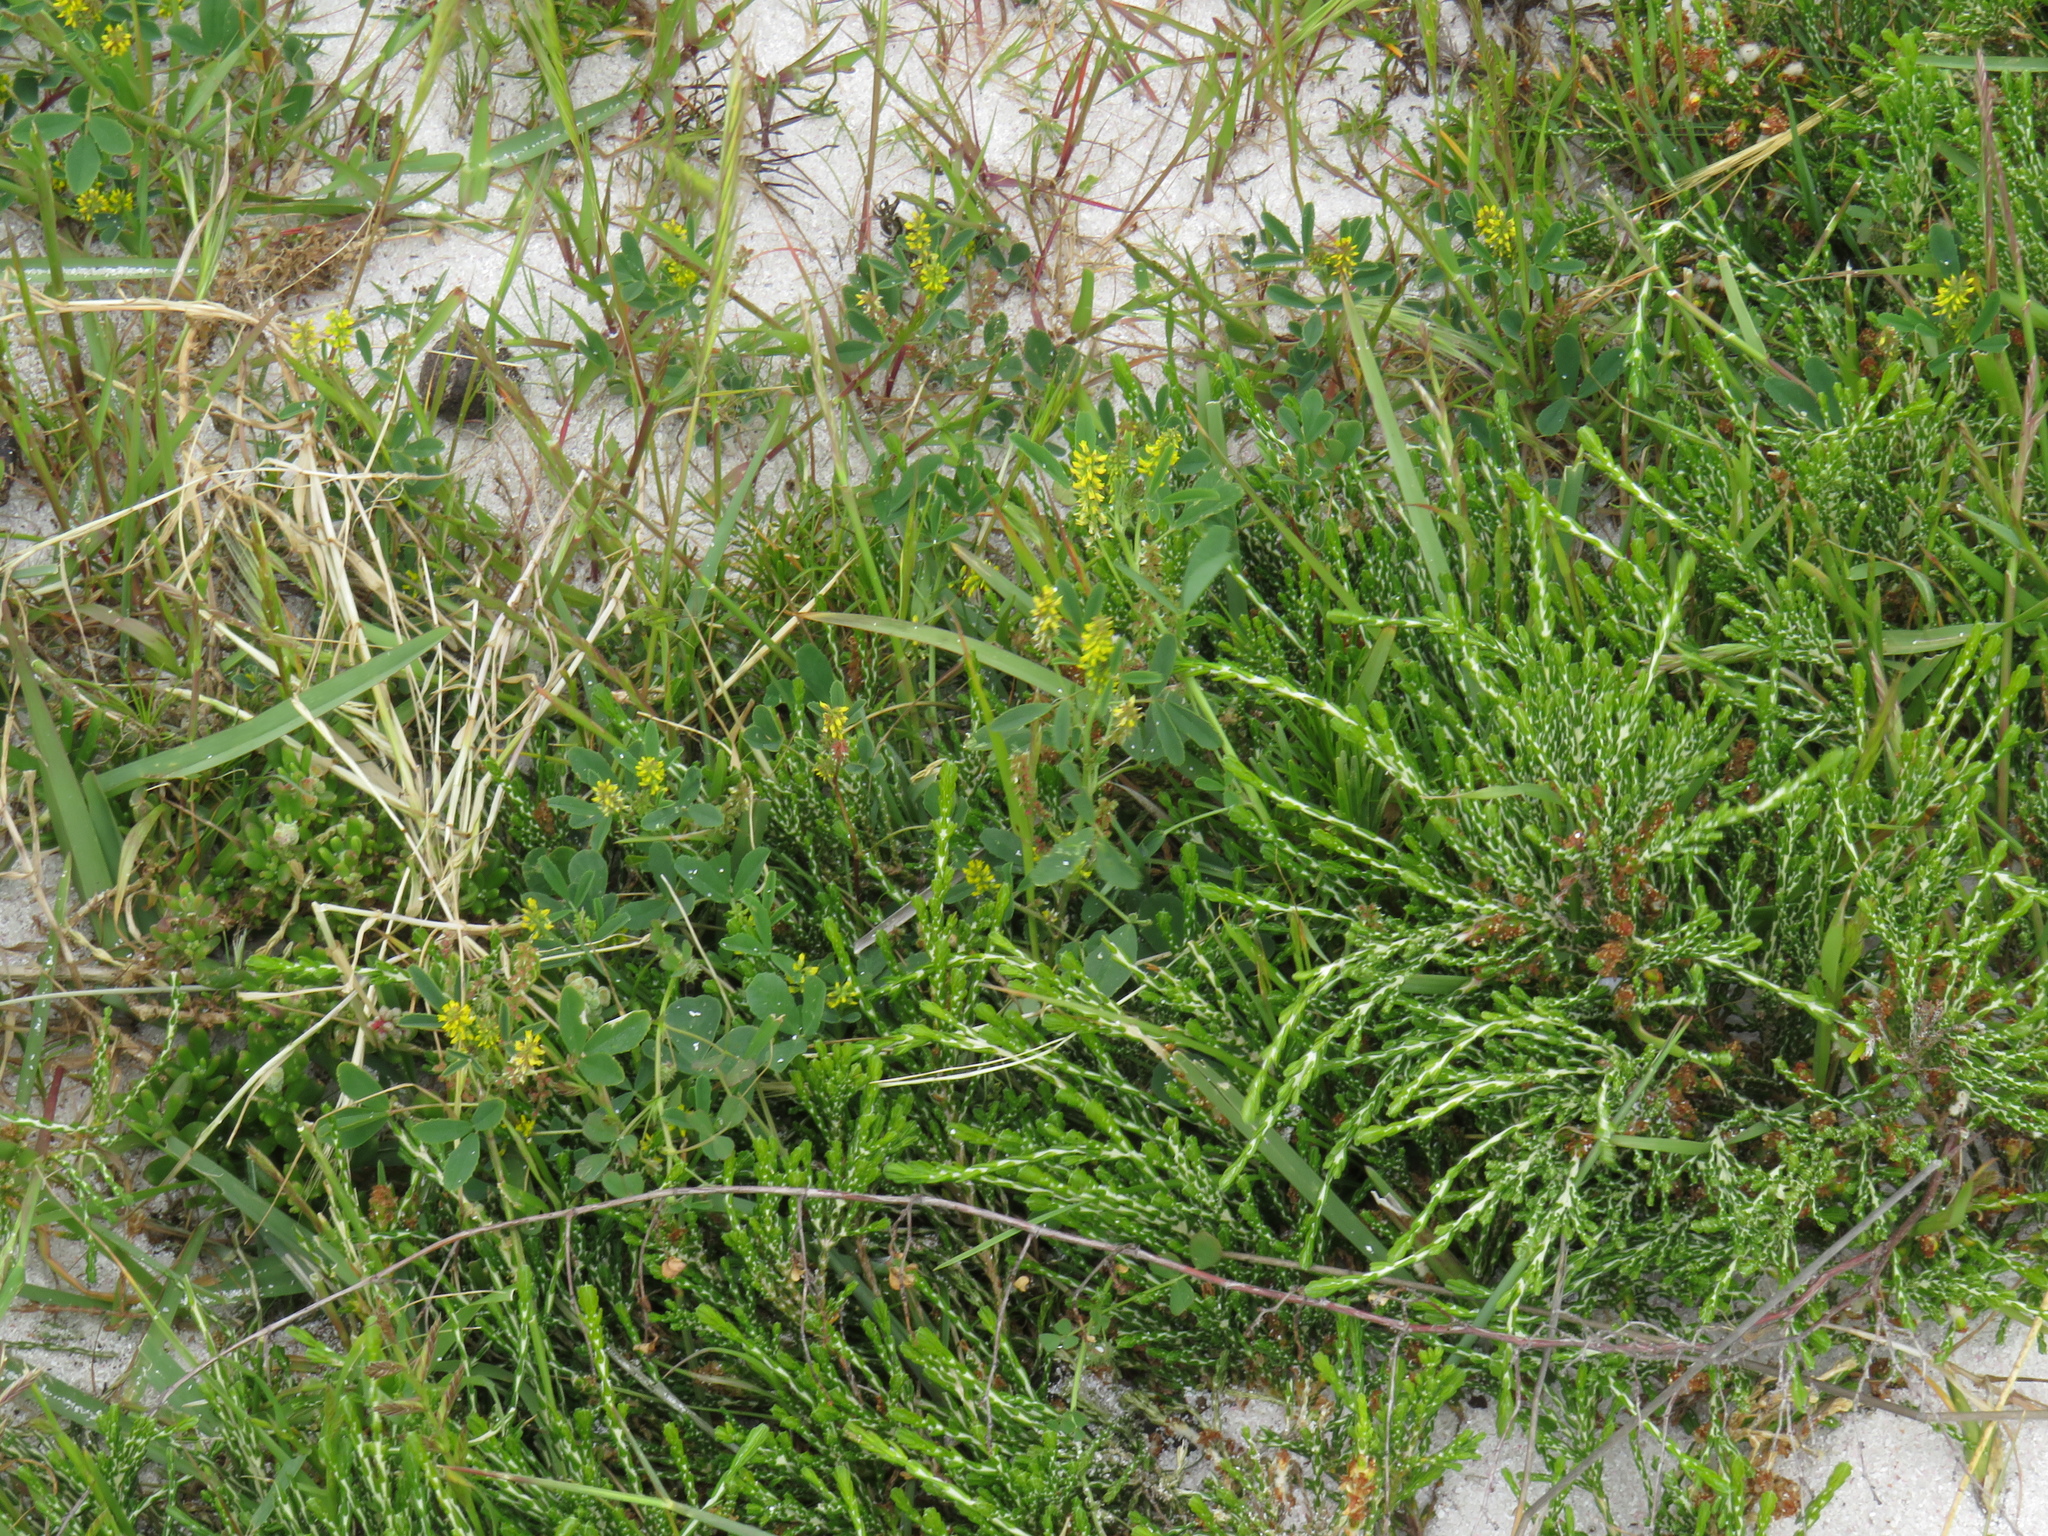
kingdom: Plantae
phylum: Tracheophyta
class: Magnoliopsida
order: Fabales
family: Fabaceae
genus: Melilotus
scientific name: Melilotus indicus
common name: Small melilot
